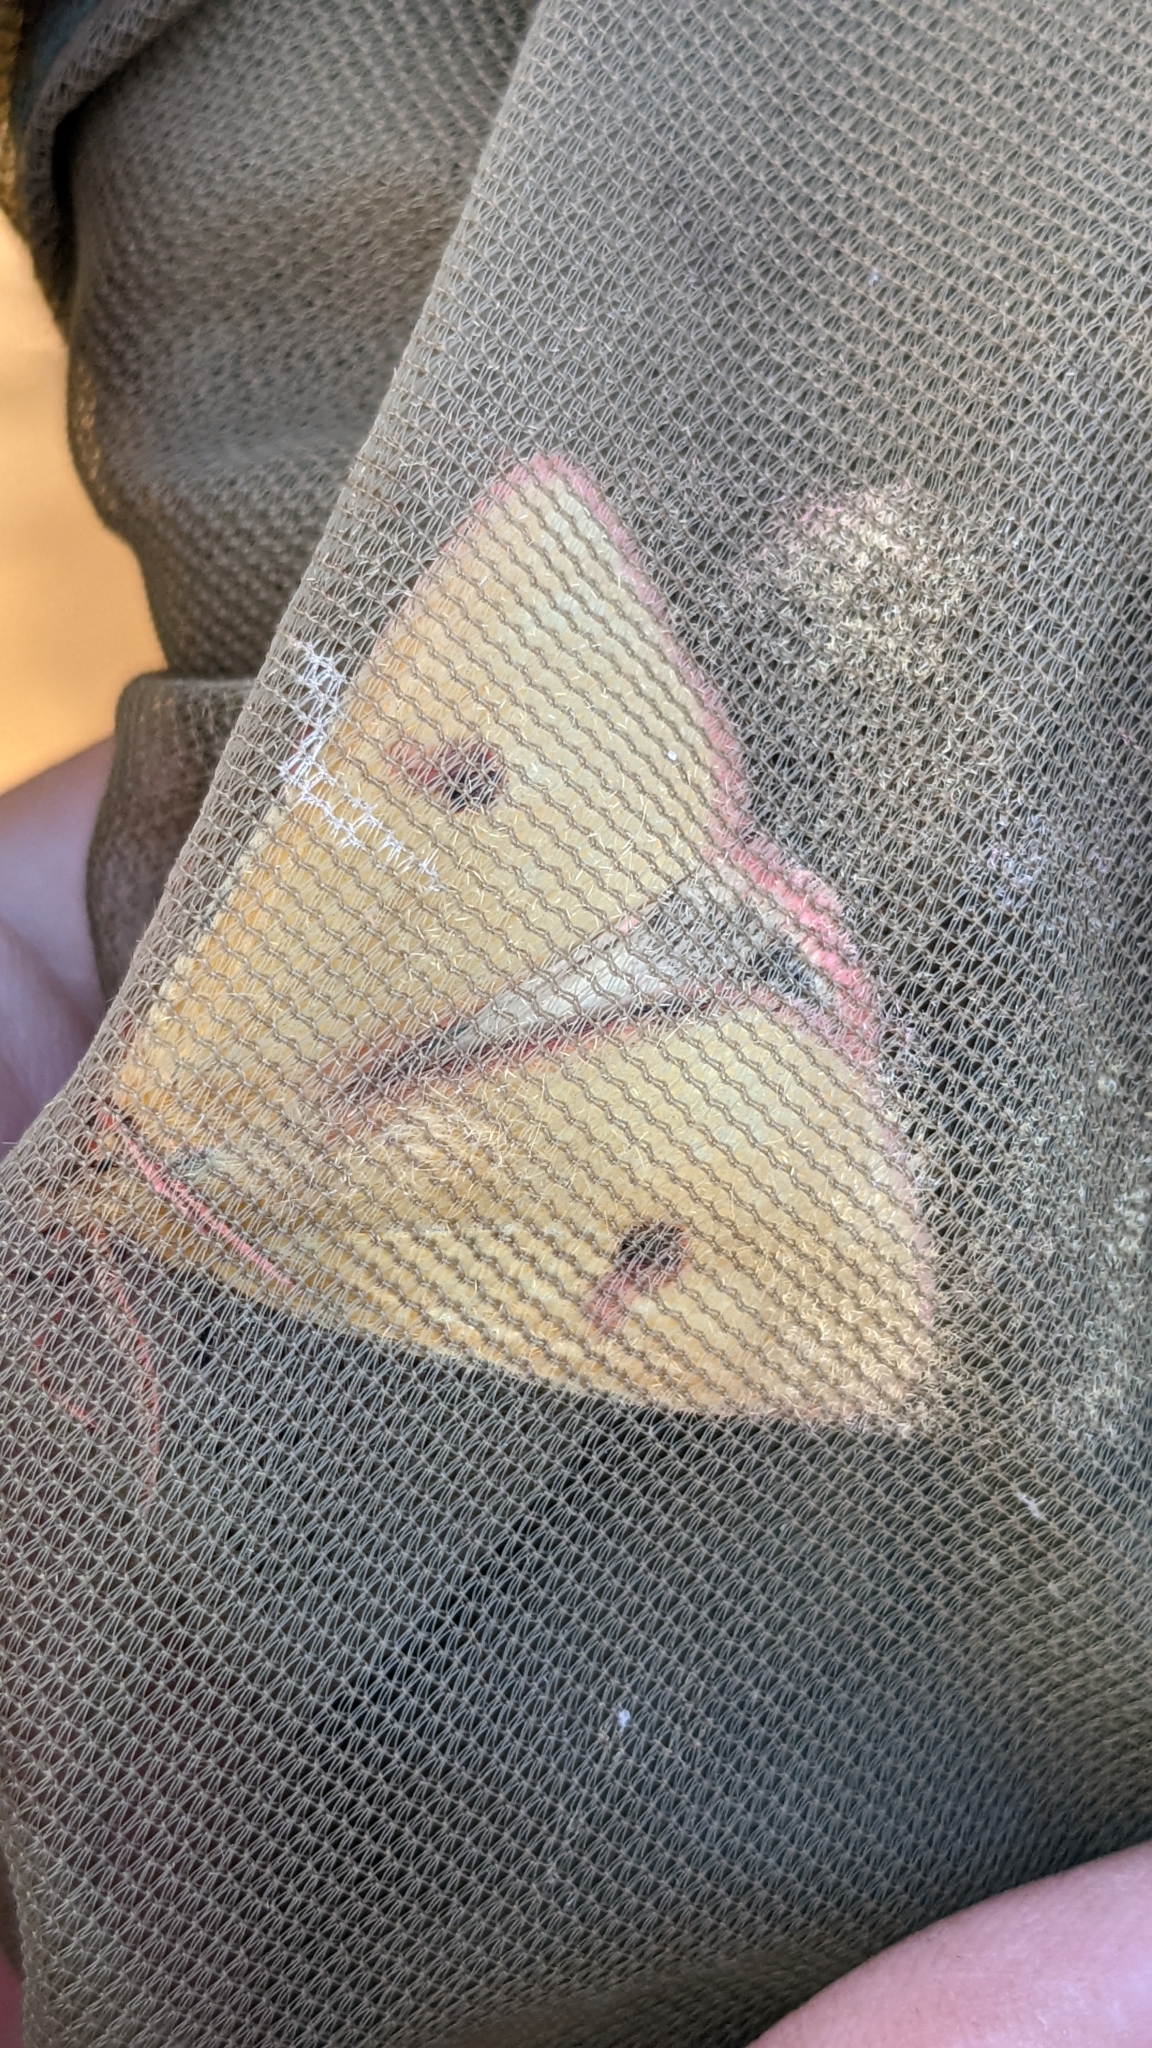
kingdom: Animalia
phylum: Arthropoda
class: Insecta
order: Lepidoptera
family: Erebidae
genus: Diacrisia
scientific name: Diacrisia sannio
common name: Clouded buff
